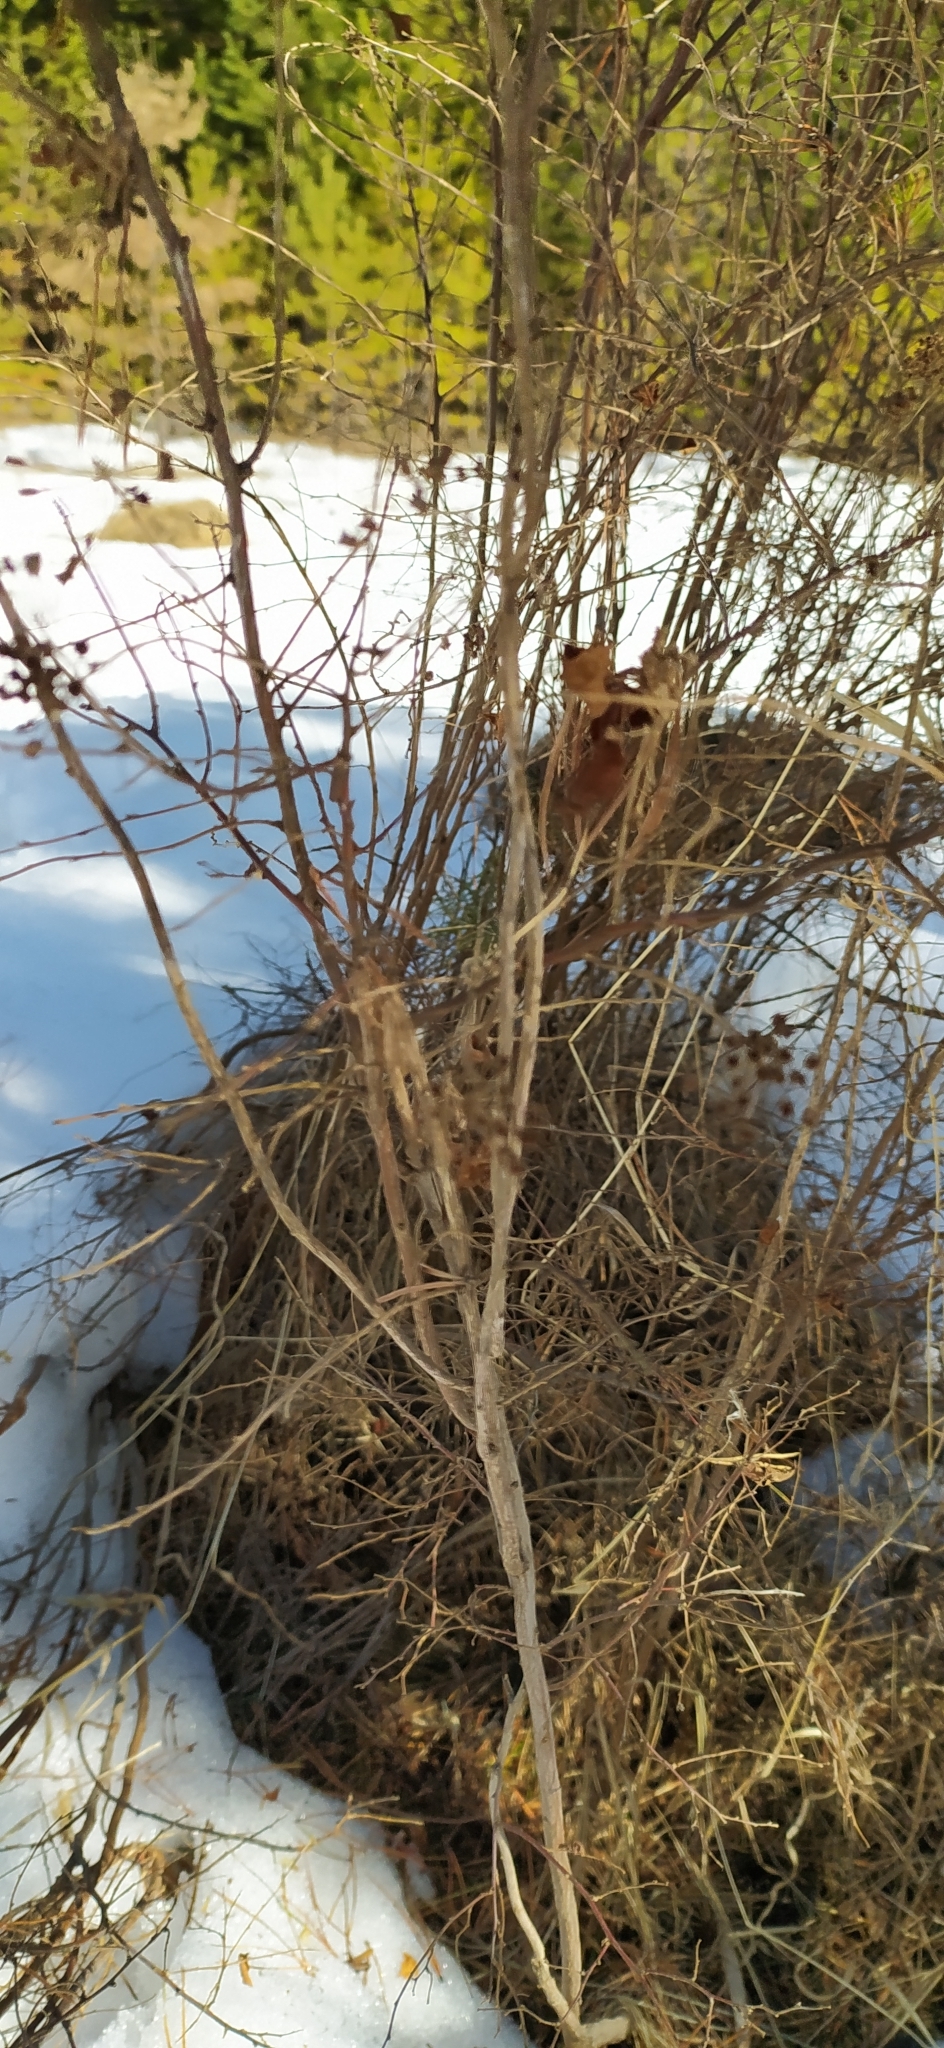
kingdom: Plantae
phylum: Tracheophyta
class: Magnoliopsida
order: Rosales
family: Rosaceae
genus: Spiraea
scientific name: Spiraea media
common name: Russian spiraea
